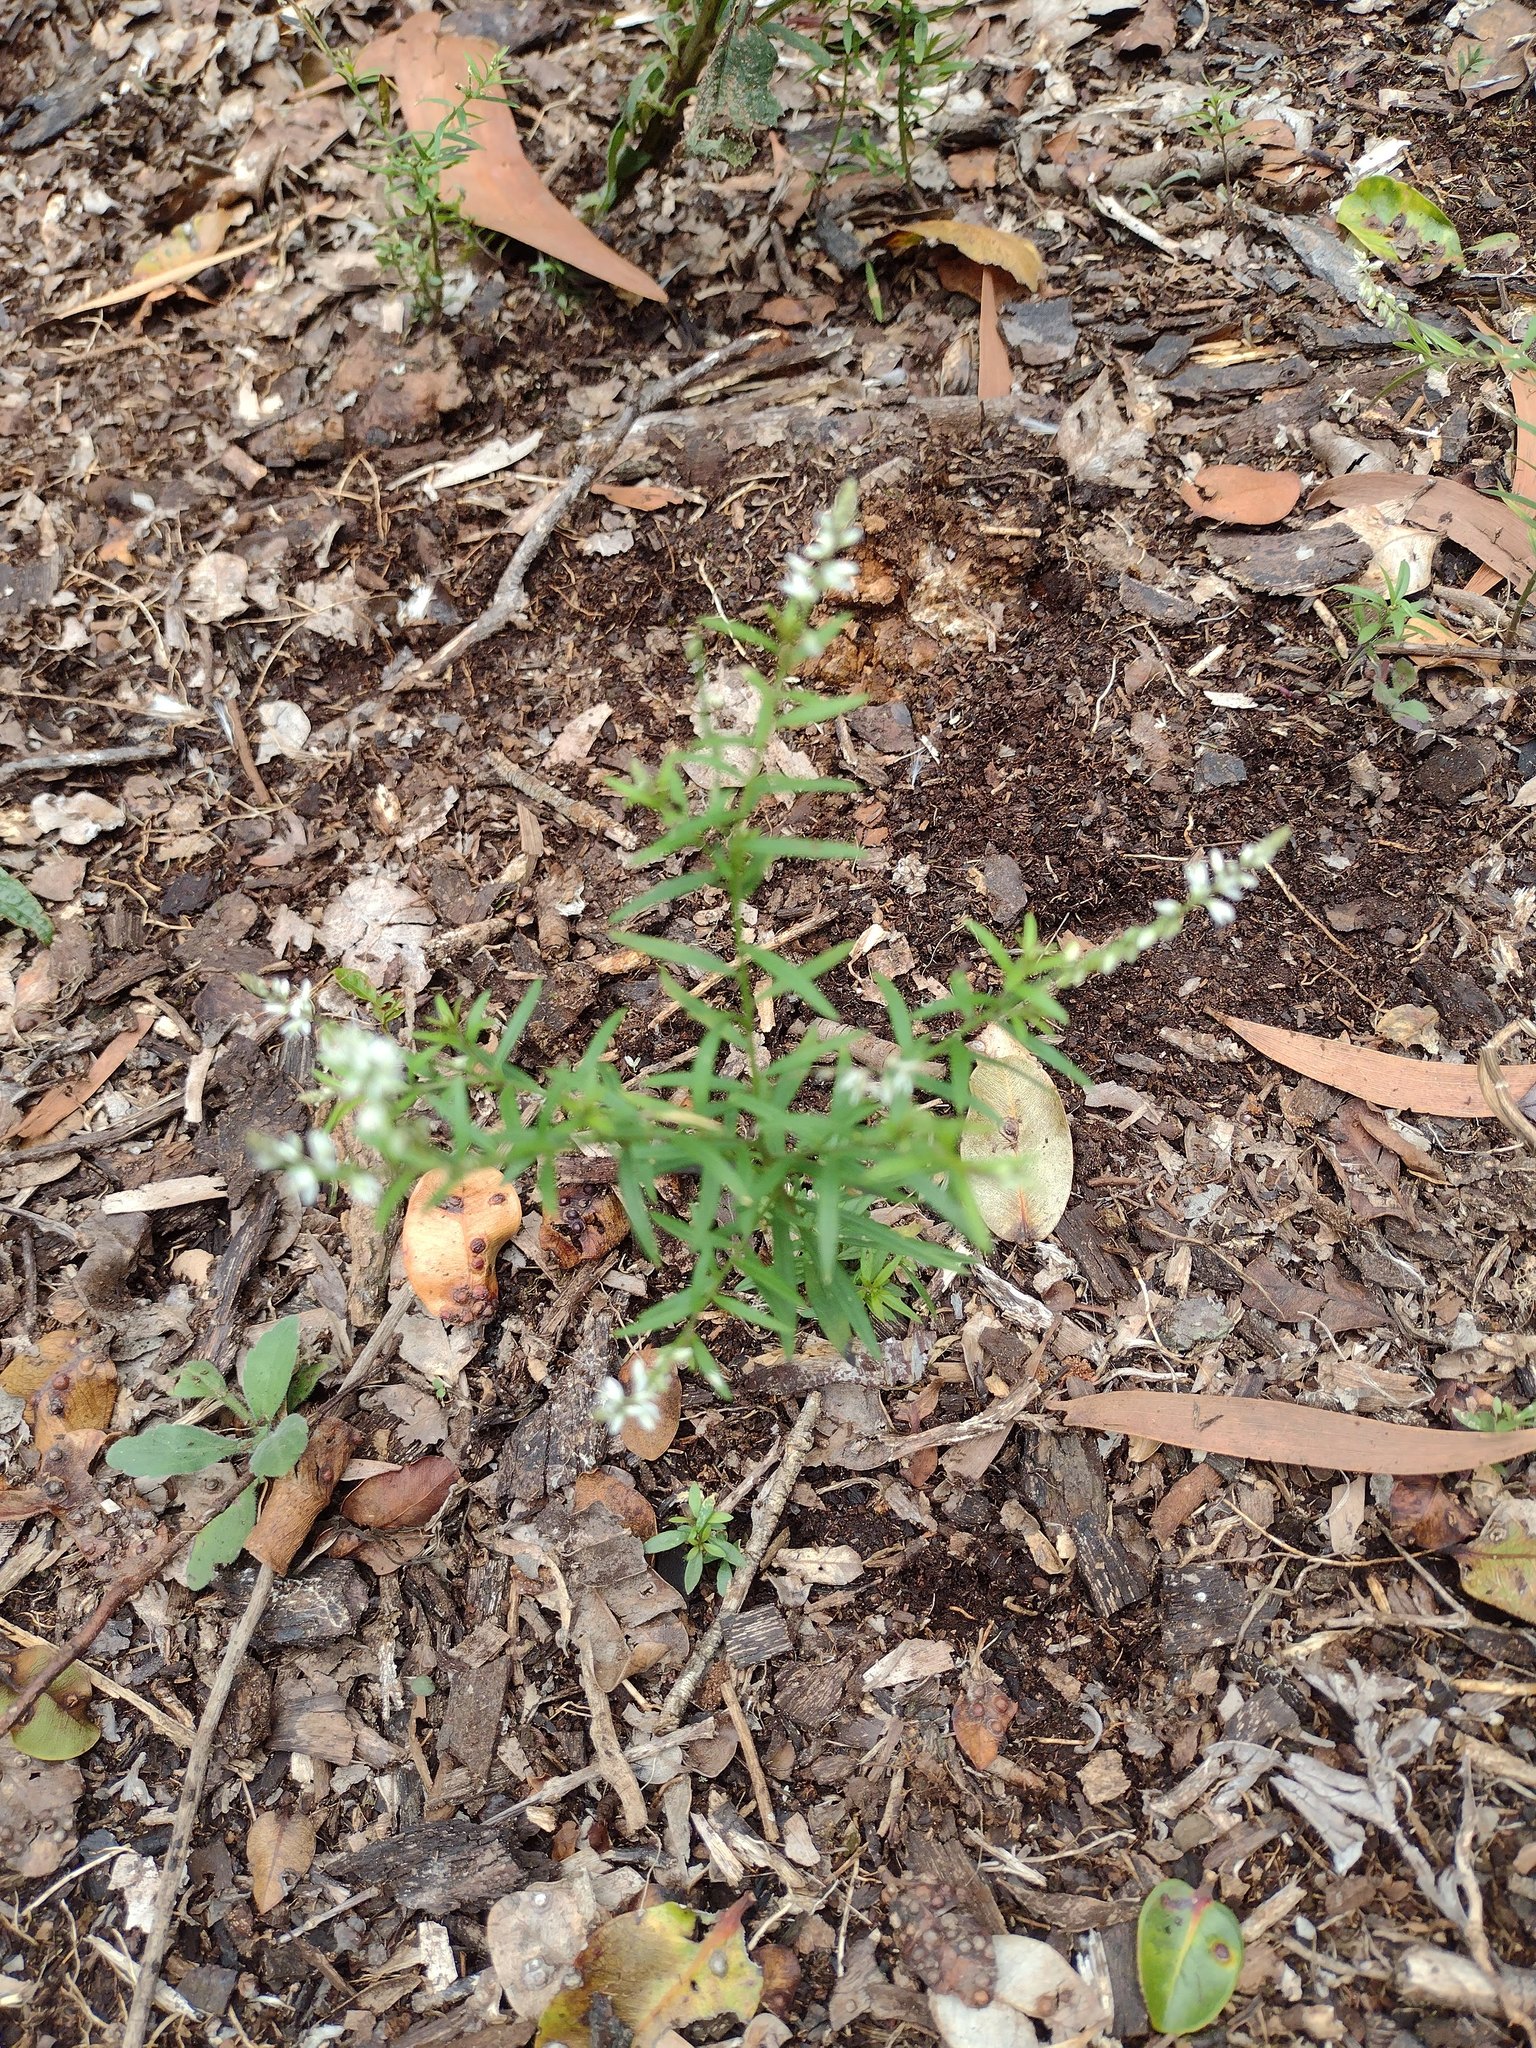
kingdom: Plantae
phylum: Tracheophyta
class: Magnoliopsida
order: Fabales
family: Polygalaceae
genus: Polygala
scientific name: Polygala paniculata
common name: Orosne
